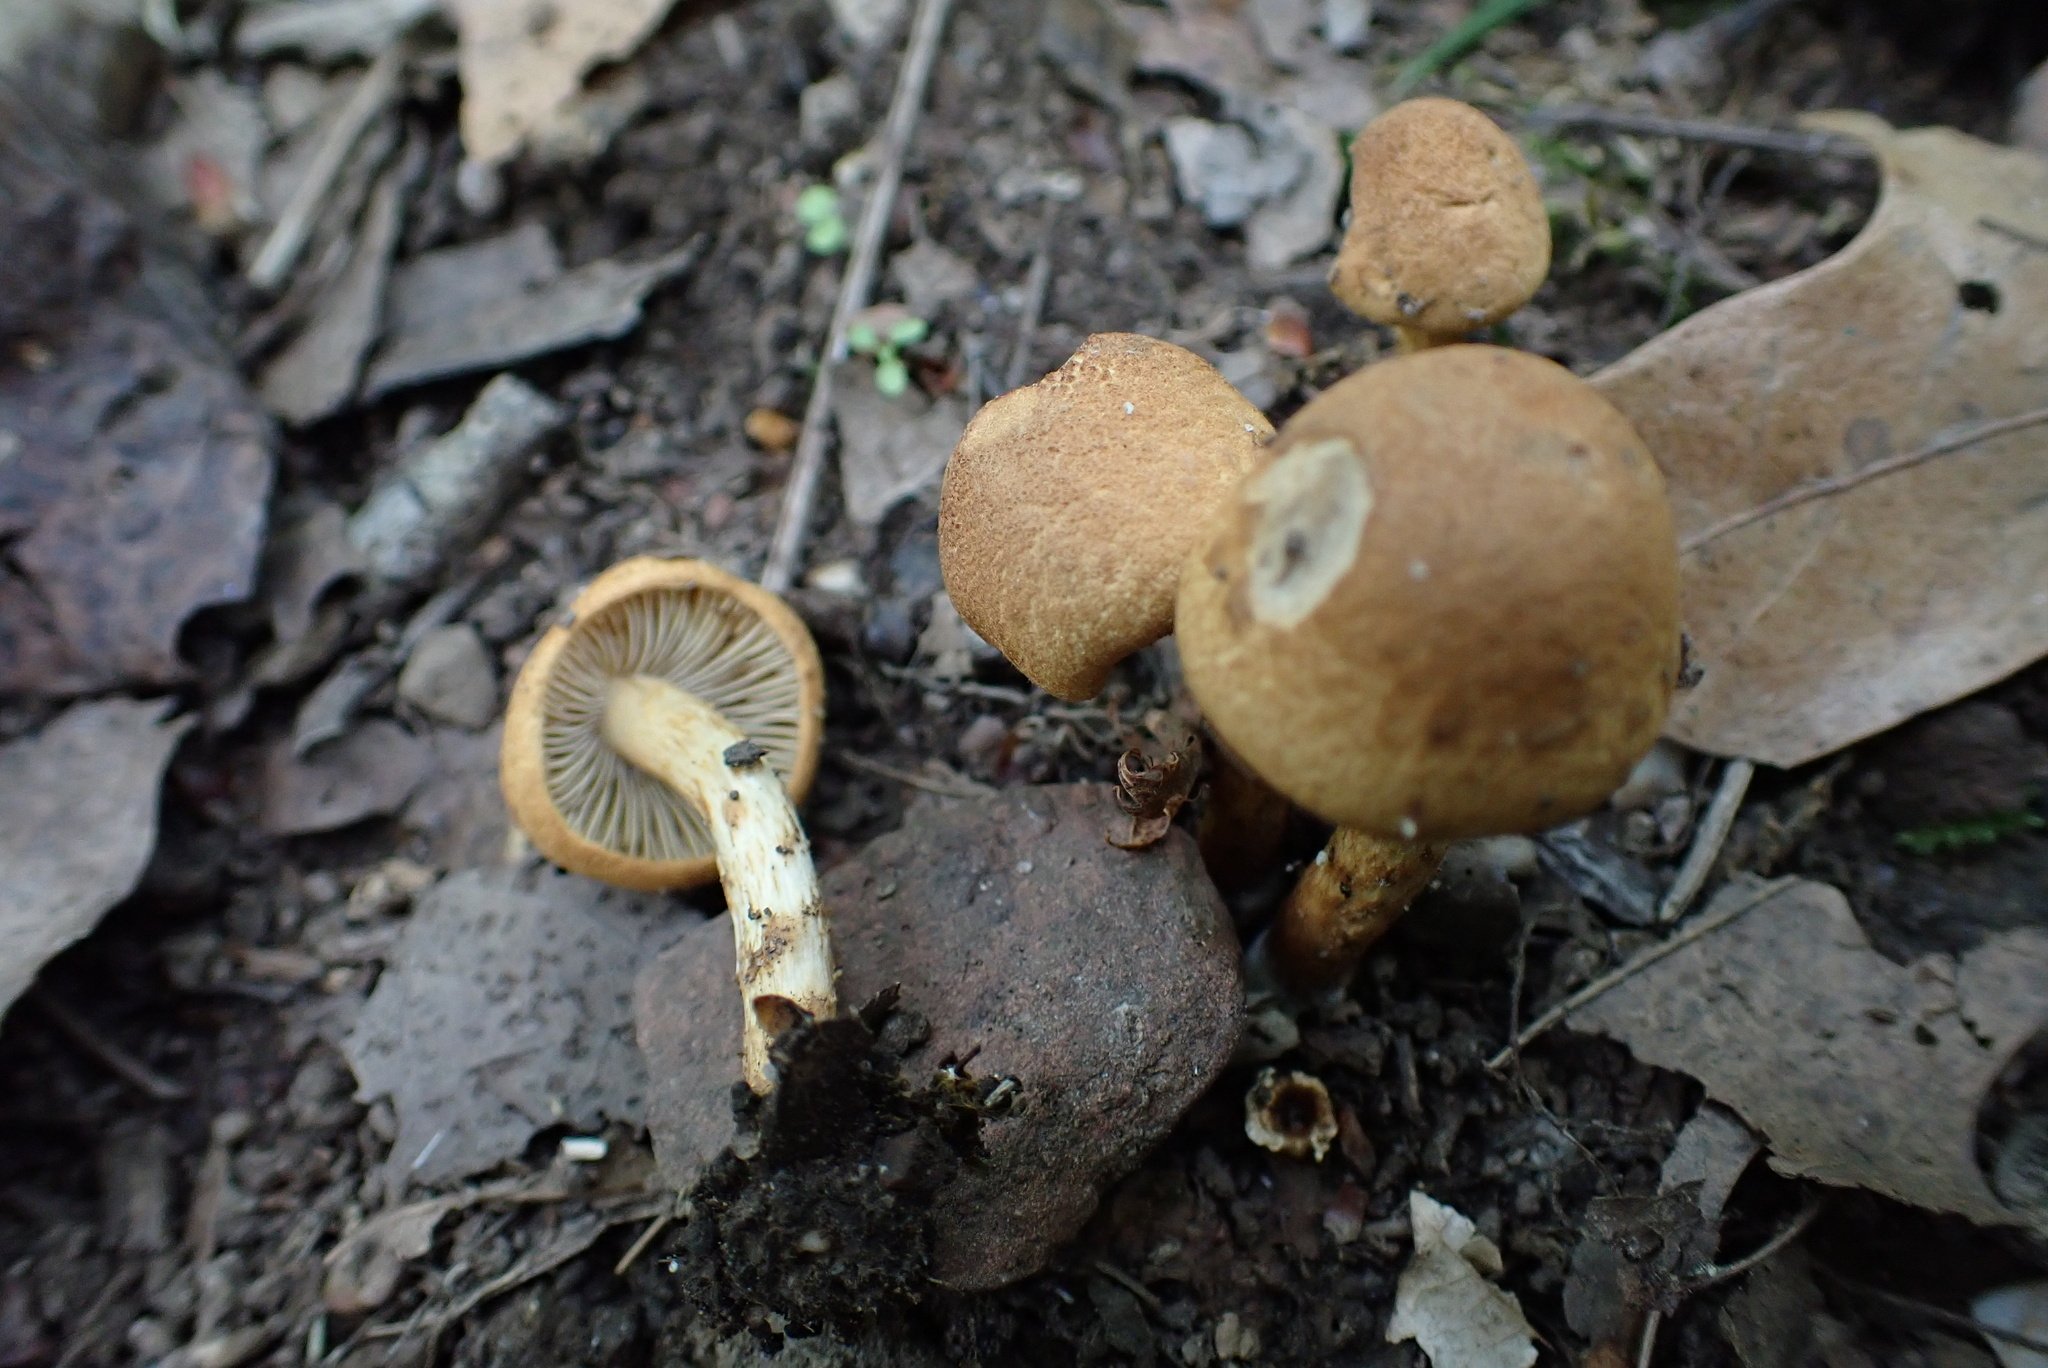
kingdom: Fungi
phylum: Basidiomycota
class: Agaricomycetes
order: Agaricales
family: Inocybaceae
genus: Mallocybe
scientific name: Mallocybe unicolor
